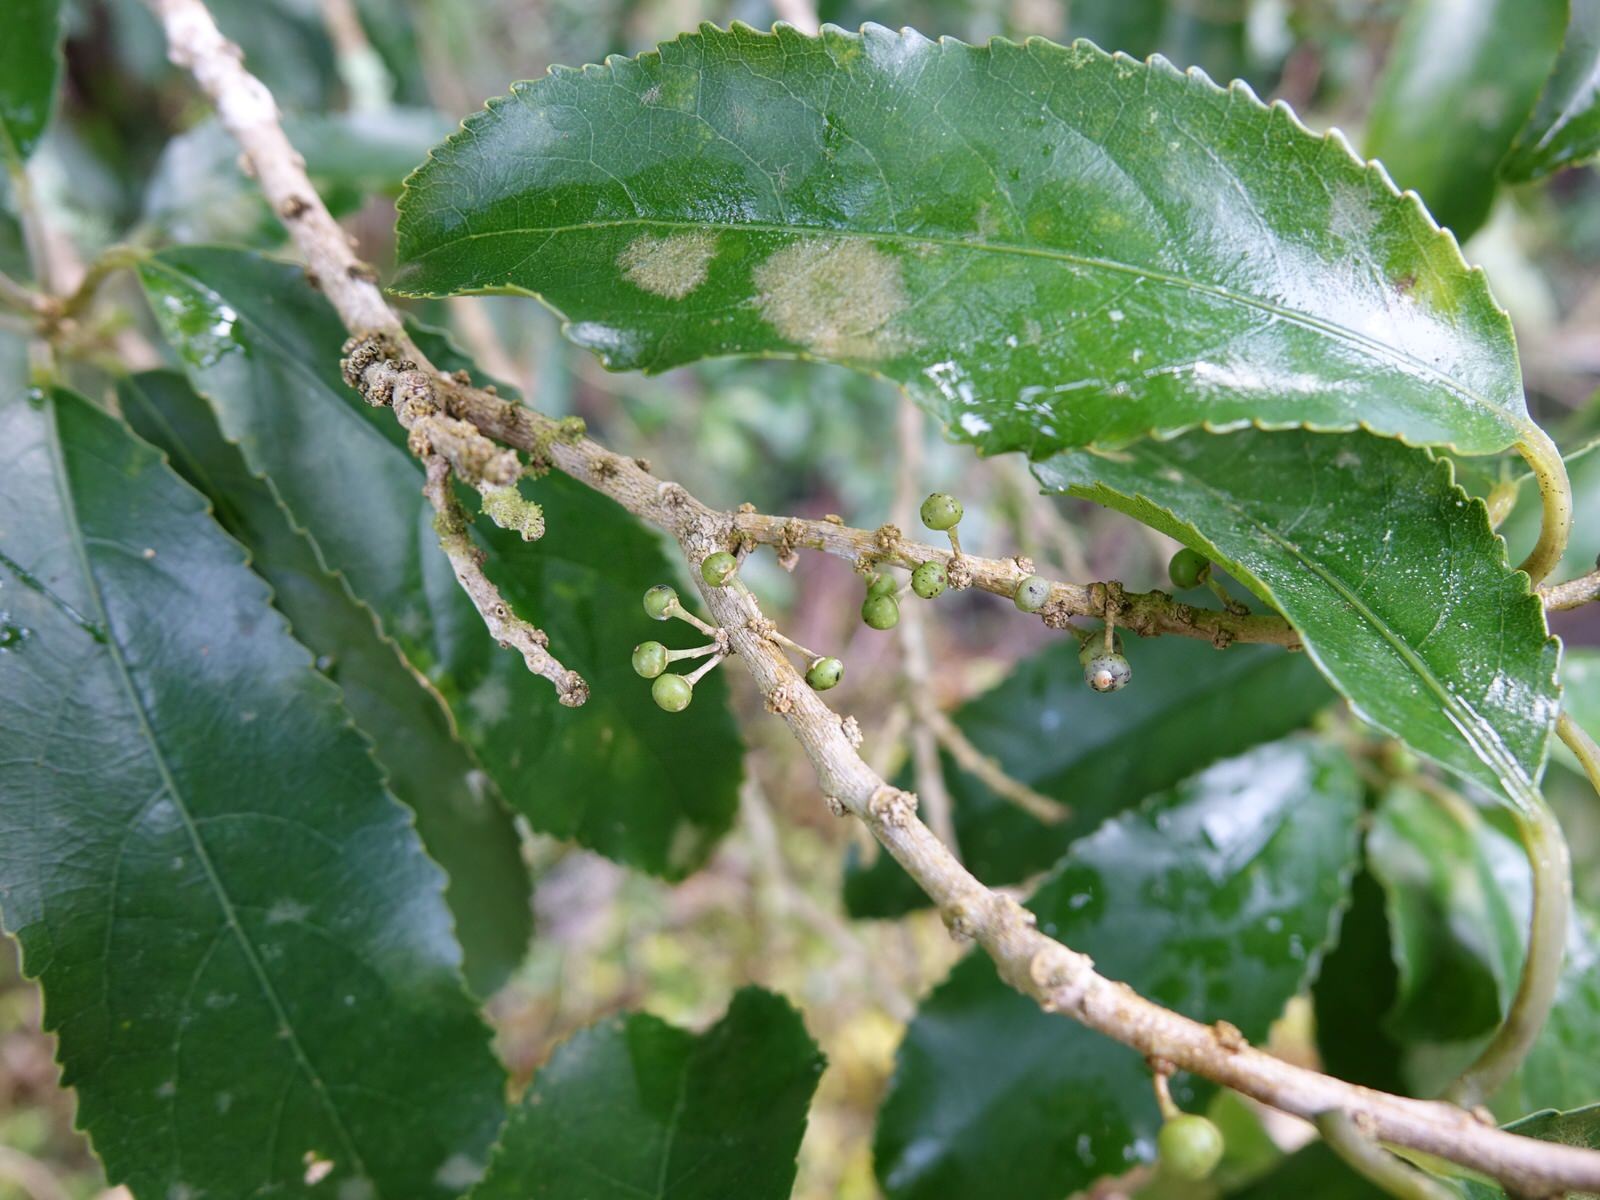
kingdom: Plantae
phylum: Tracheophyta
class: Magnoliopsida
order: Malpighiales
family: Violaceae
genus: Melicytus
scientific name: Melicytus ramiflorus
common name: Mahoe
